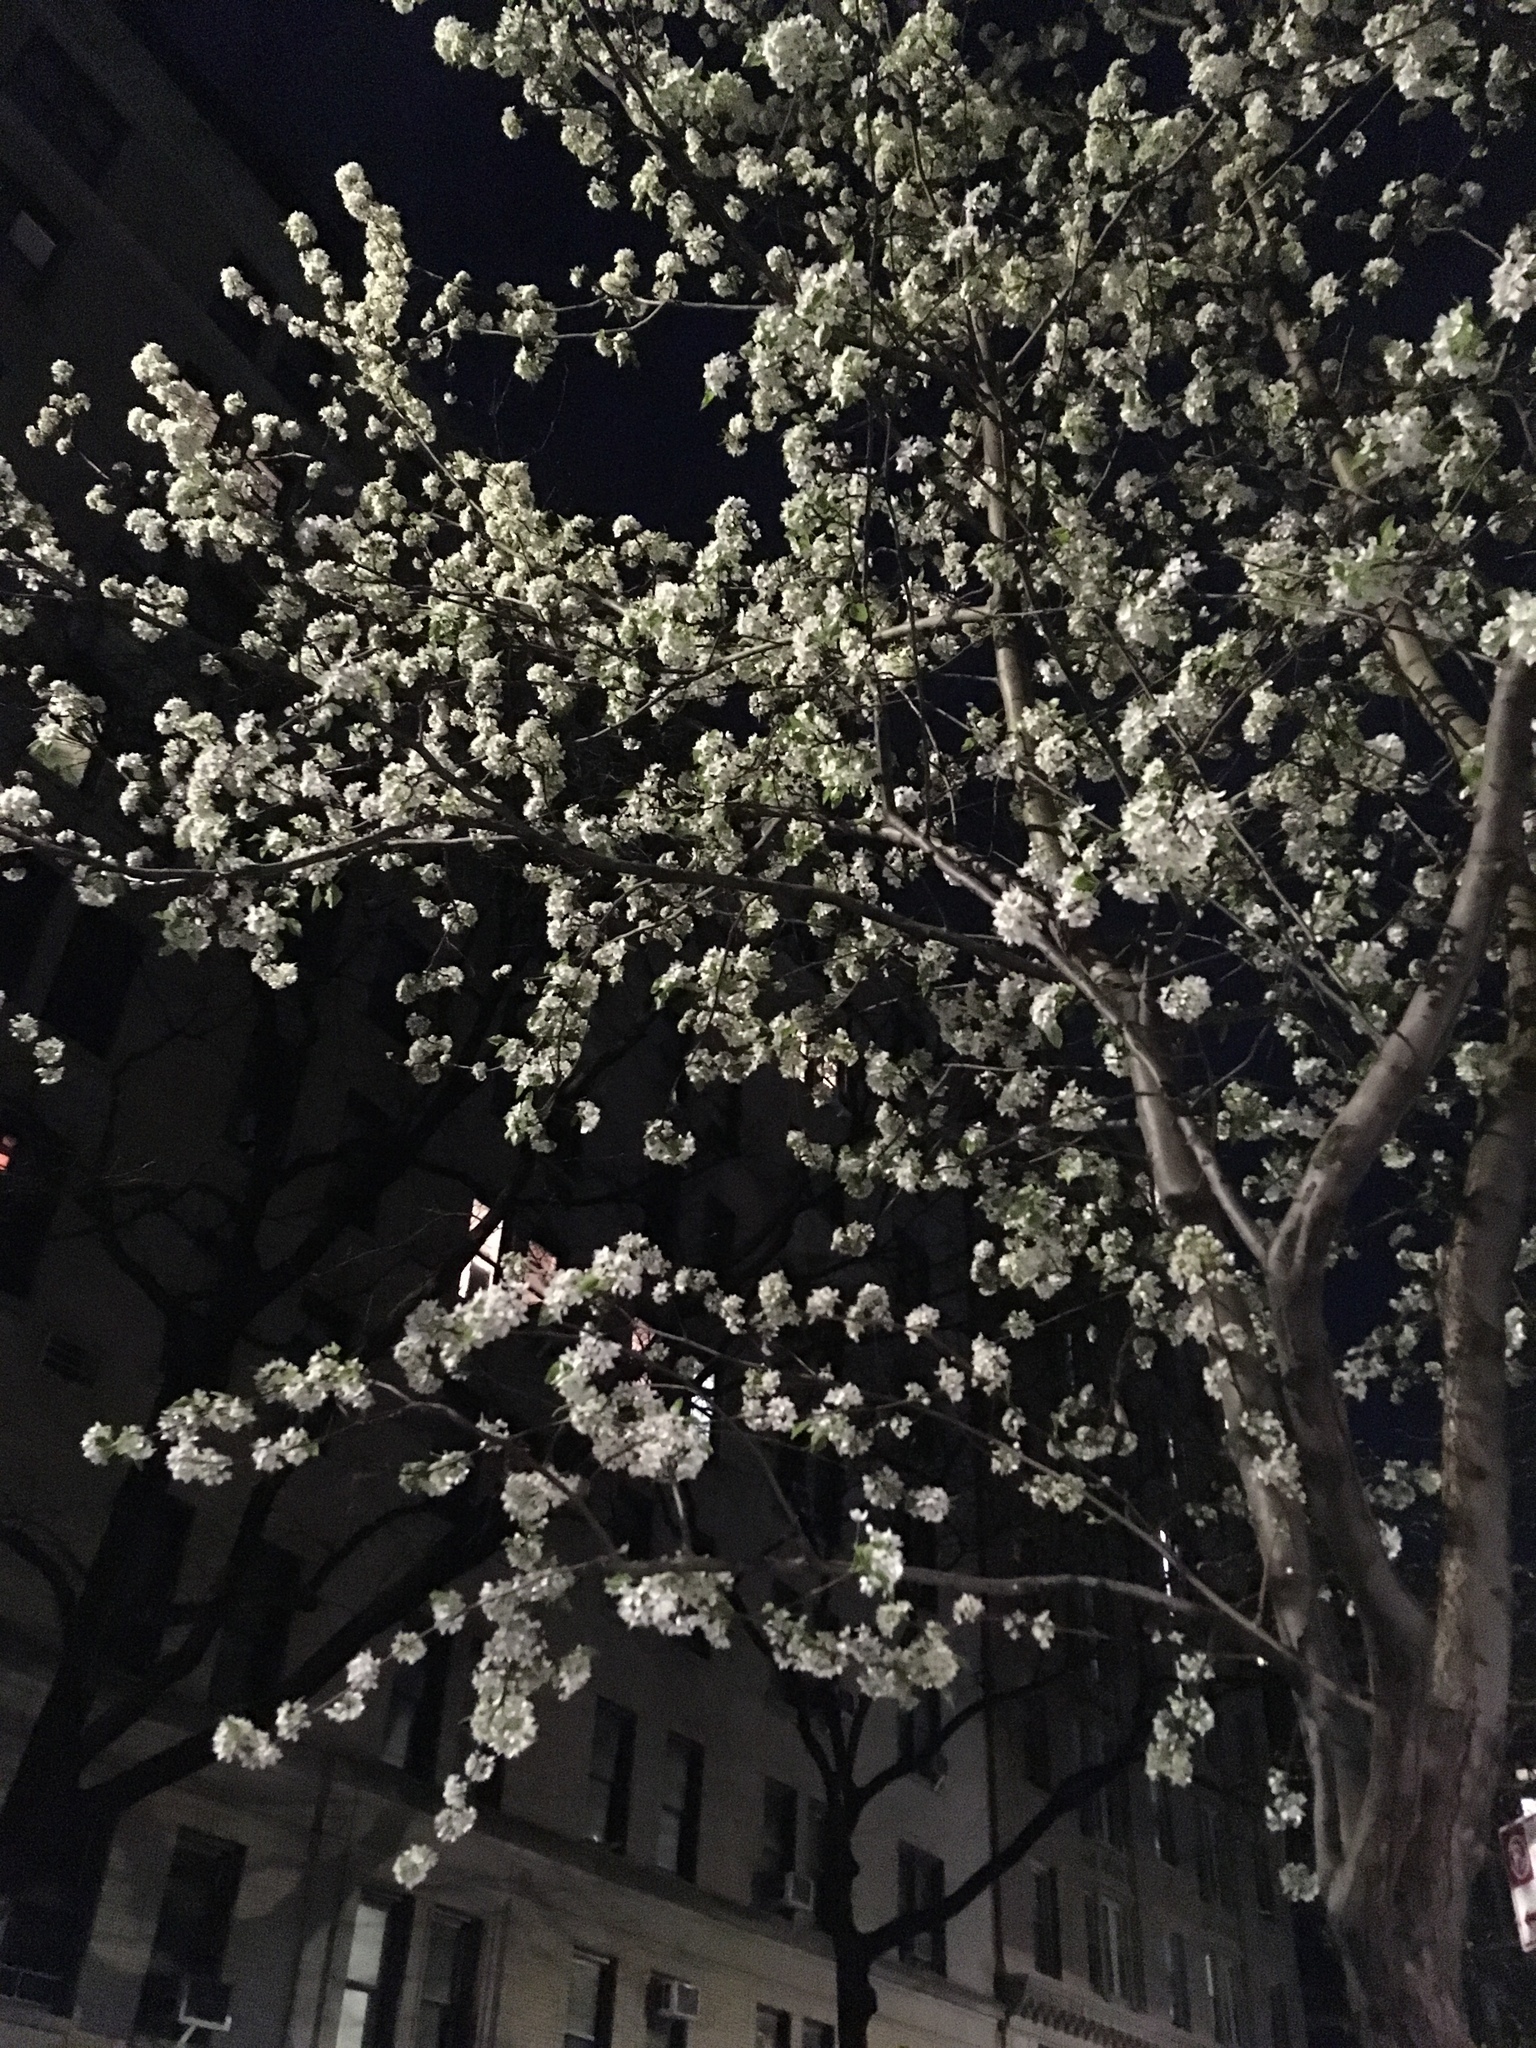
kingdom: Plantae
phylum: Tracheophyta
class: Magnoliopsida
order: Rosales
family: Rosaceae
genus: Pyrus
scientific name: Pyrus calleryana
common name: Callery pear
